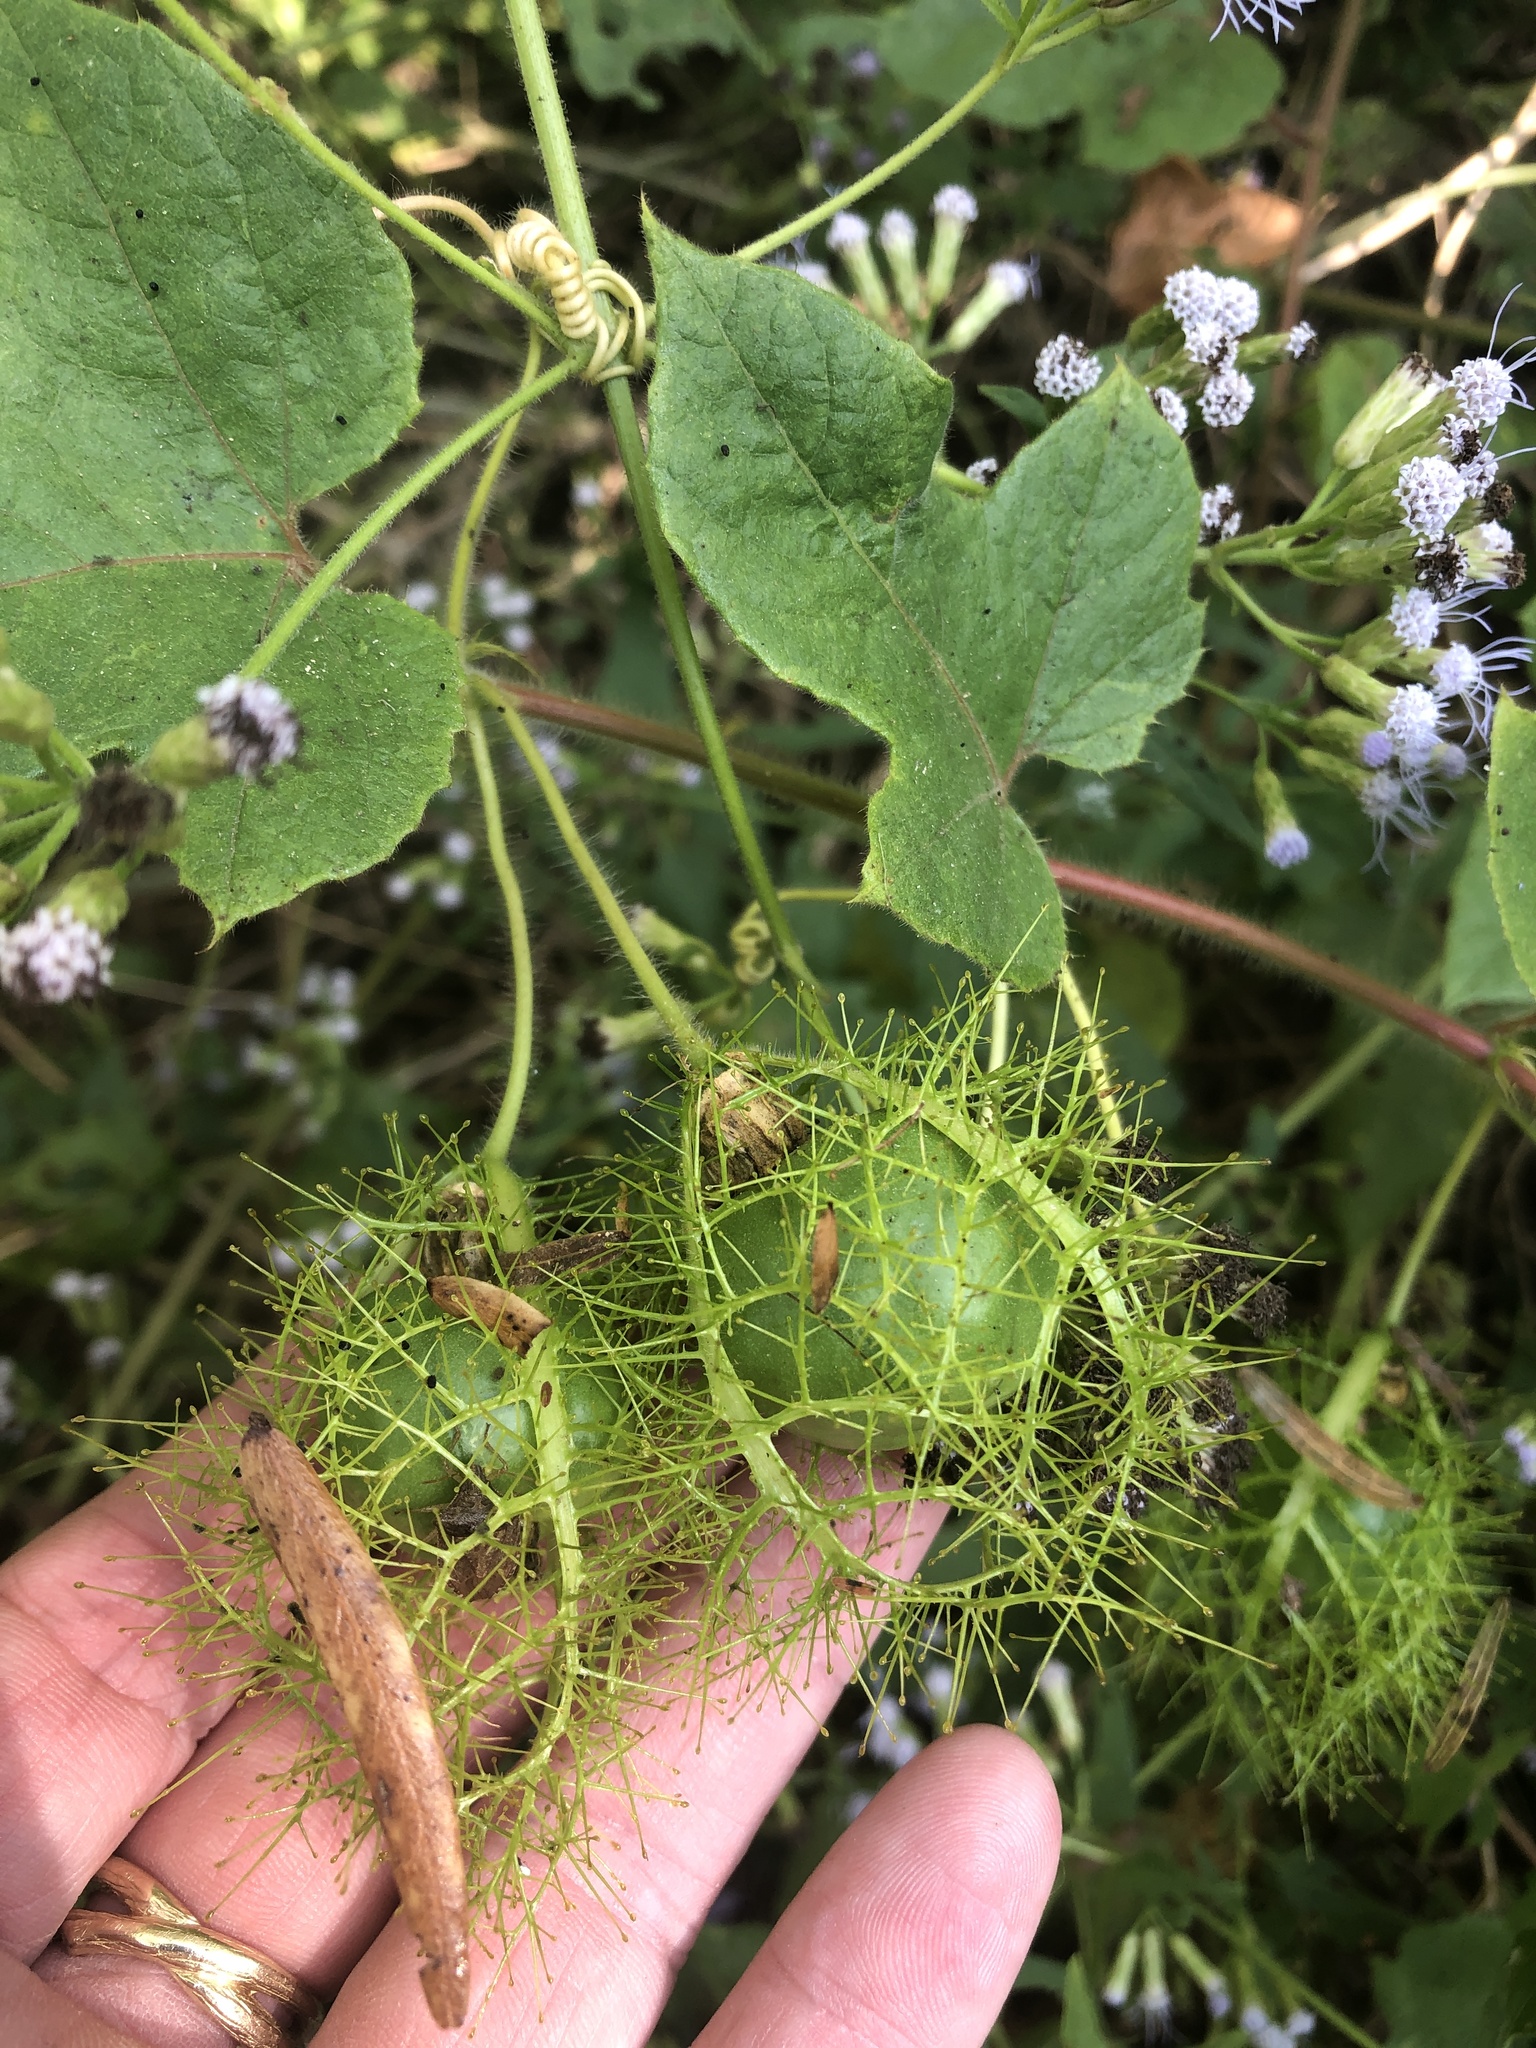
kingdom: Plantae
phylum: Tracheophyta
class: Magnoliopsida
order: Malpighiales
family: Passifloraceae
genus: Passiflora
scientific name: Passiflora
